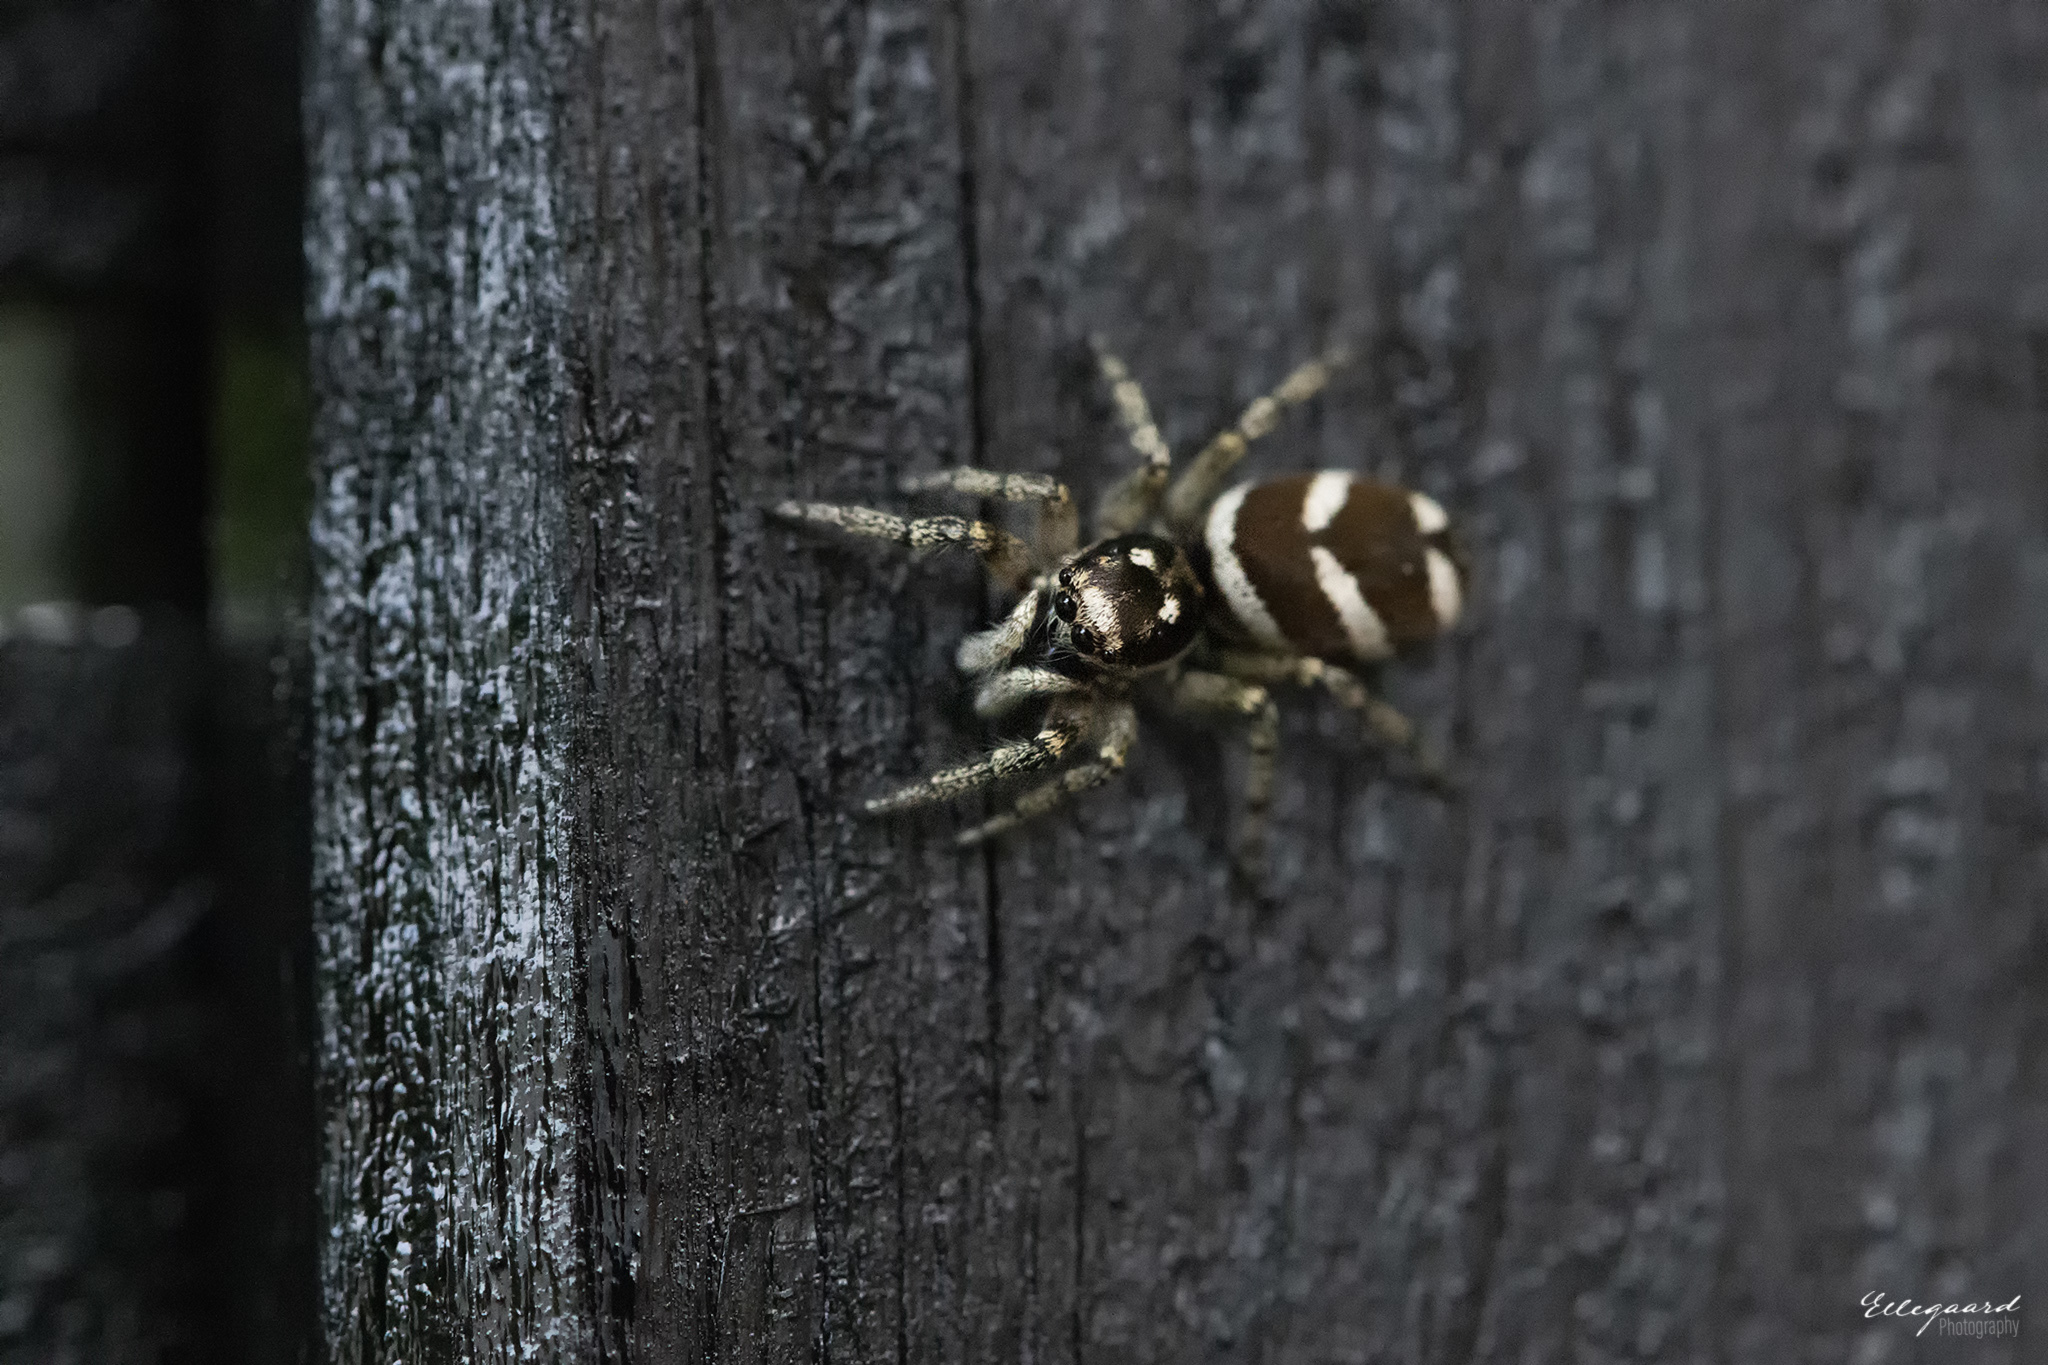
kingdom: Animalia
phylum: Arthropoda
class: Arachnida
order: Araneae
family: Salticidae
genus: Salticus
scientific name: Salticus scenicus
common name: Zebra jumper
